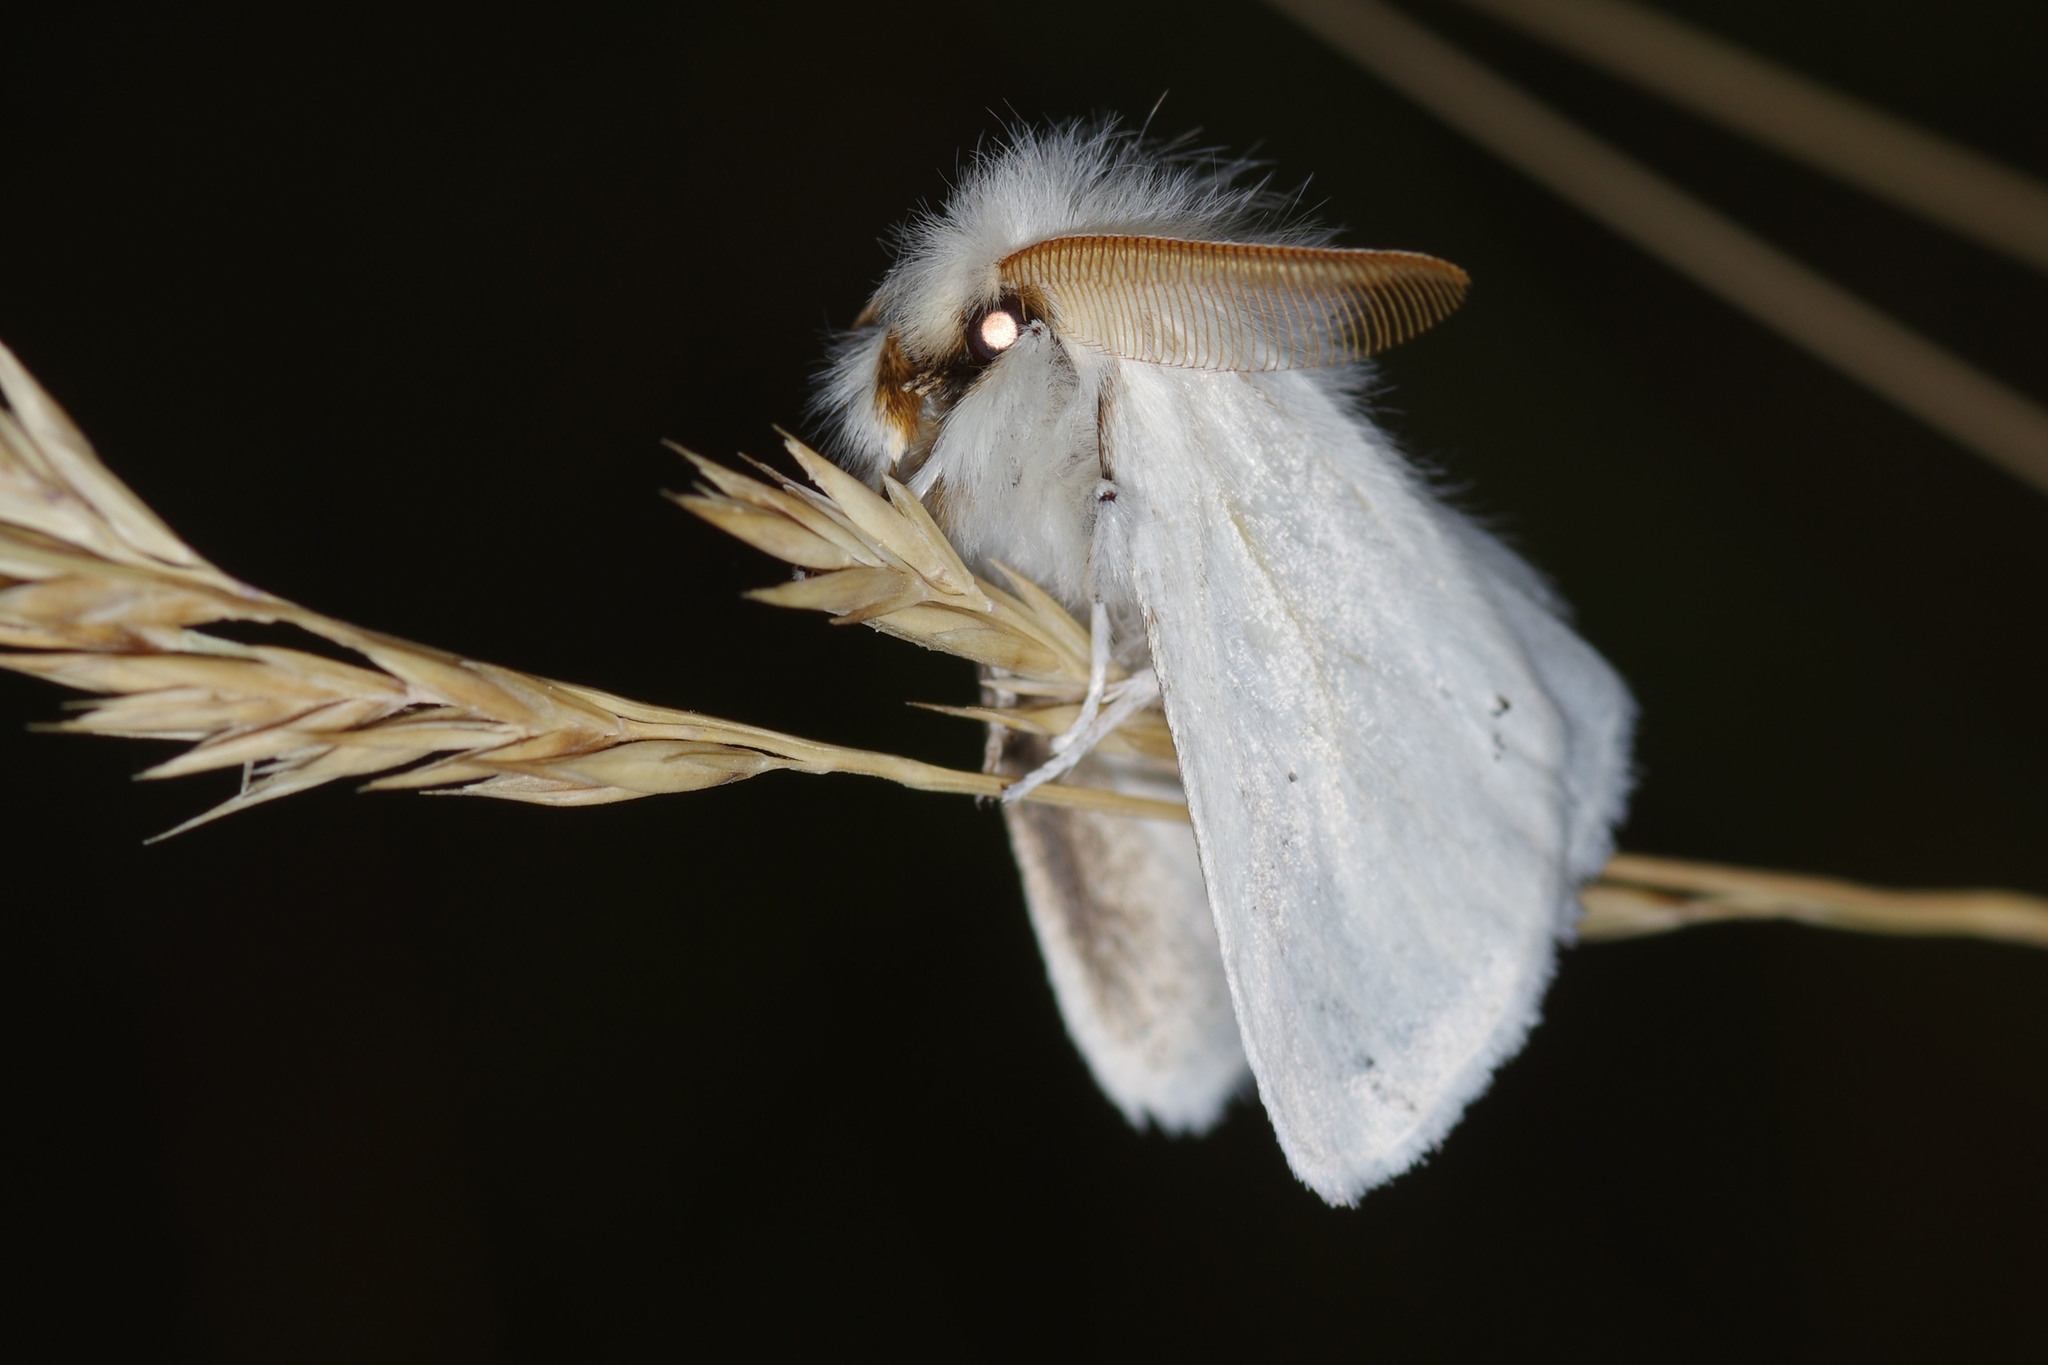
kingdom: Animalia
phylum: Arthropoda
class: Insecta
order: Lepidoptera
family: Erebidae
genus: Euproctis
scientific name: Euproctis chrysorrhoea
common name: Brown-tail
